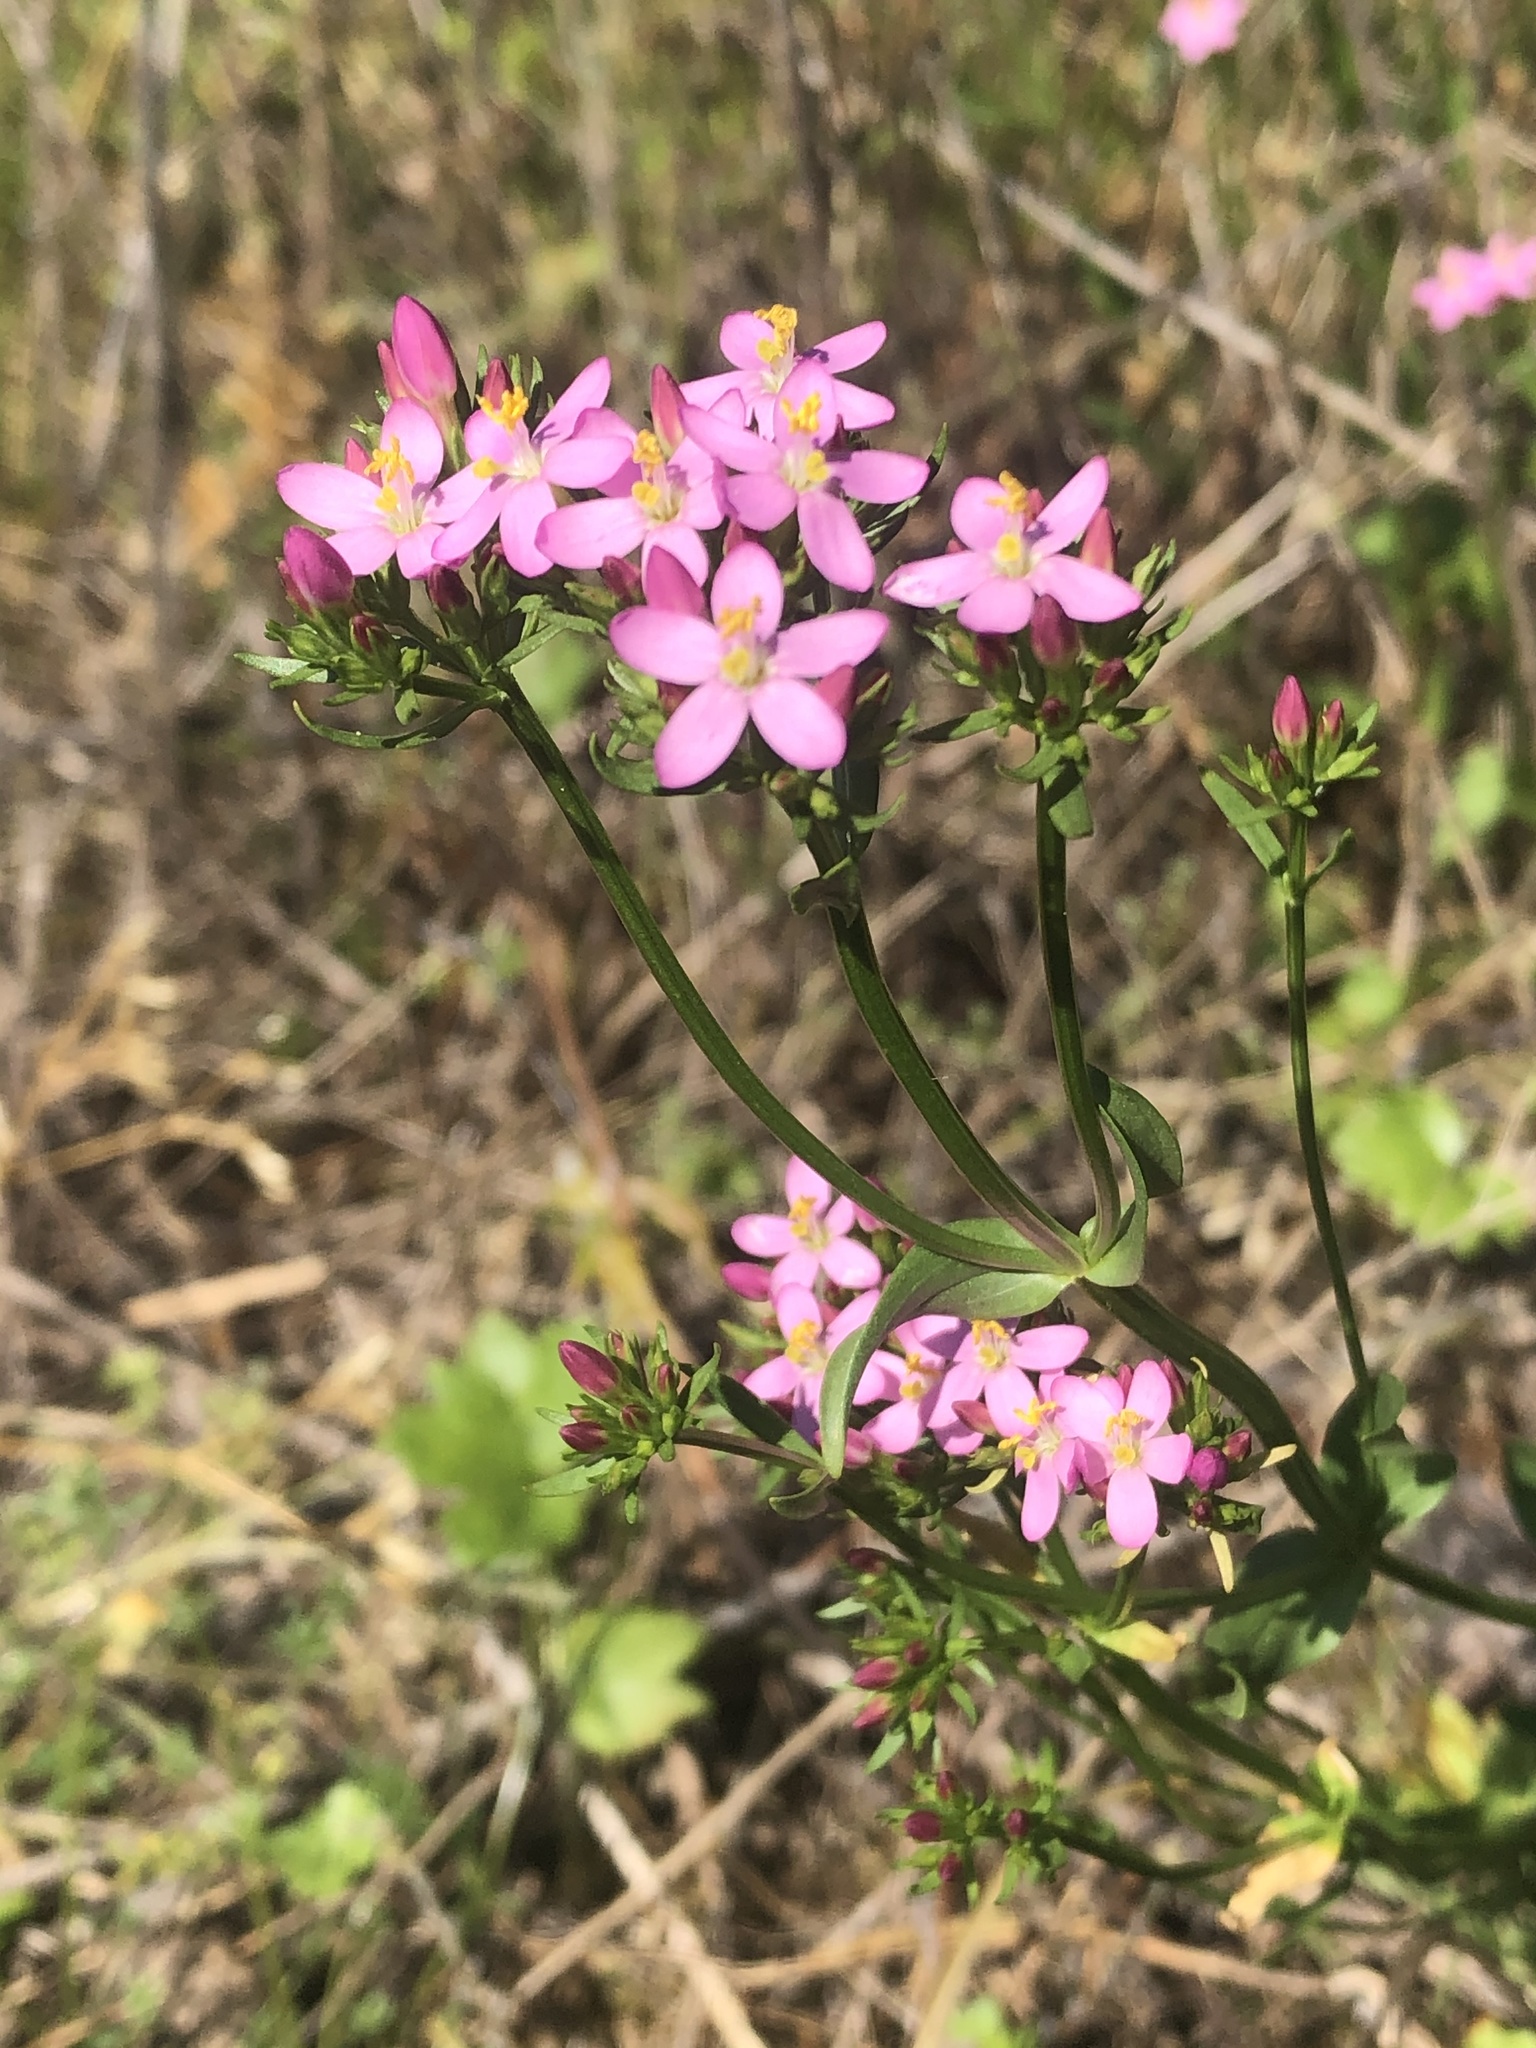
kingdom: Plantae
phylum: Tracheophyta
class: Magnoliopsida
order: Gentianales
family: Gentianaceae
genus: Centaurium
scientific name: Centaurium erythraea
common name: Common centaury
